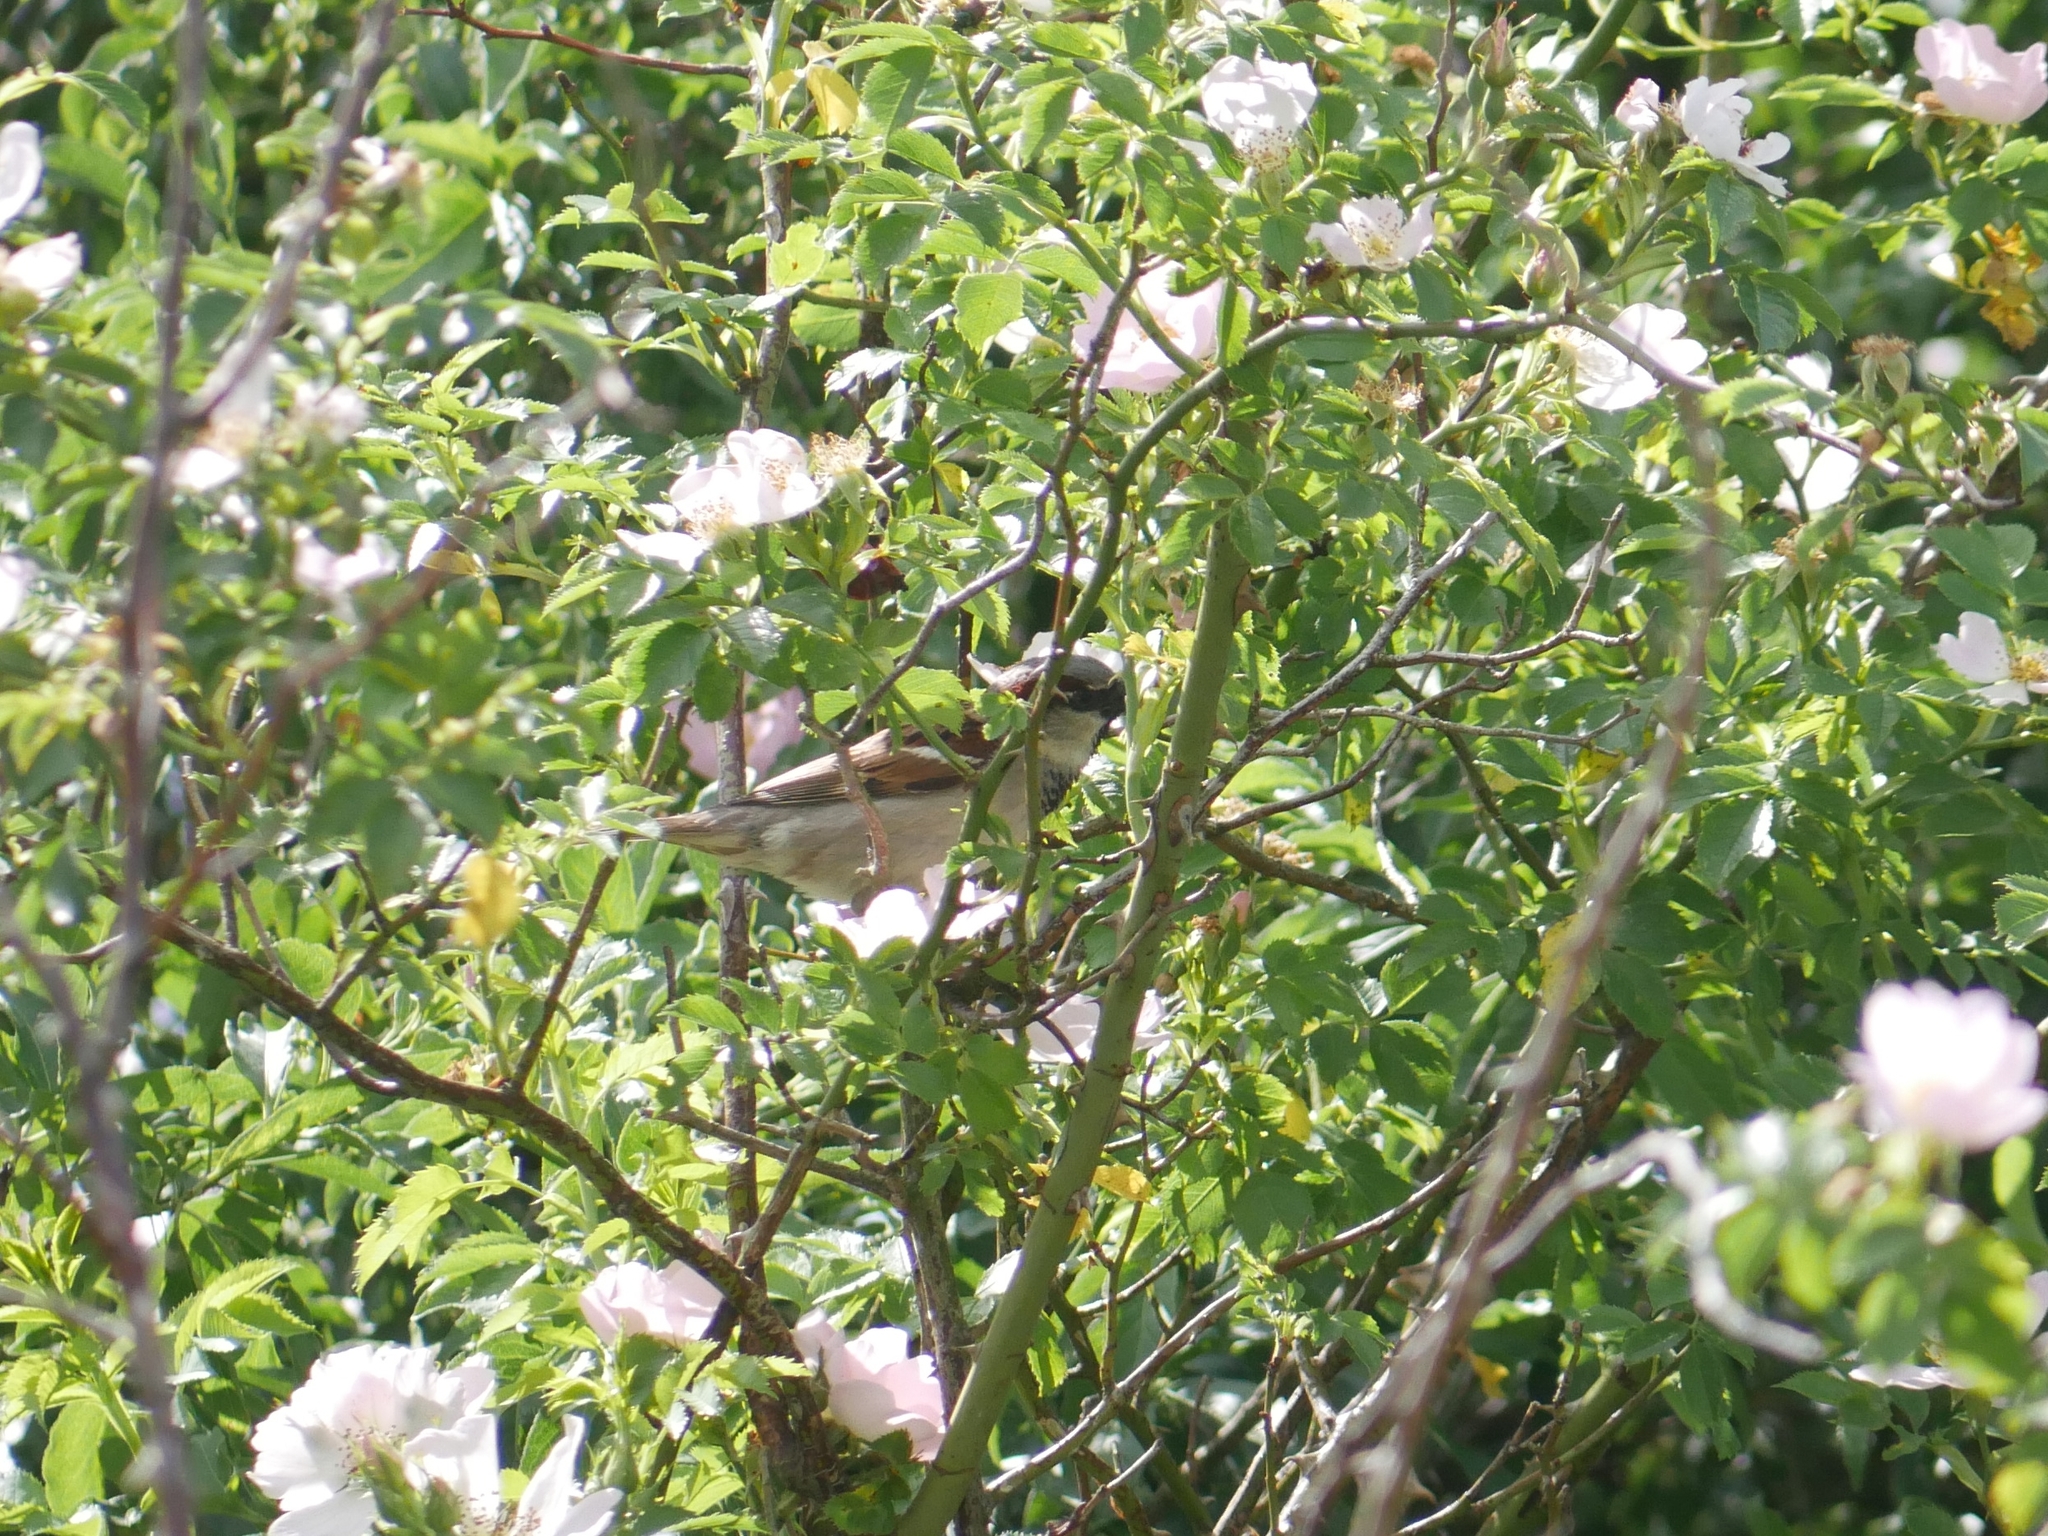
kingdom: Animalia
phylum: Chordata
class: Aves
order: Passeriformes
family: Passeridae
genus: Passer
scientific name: Passer domesticus
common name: House sparrow
